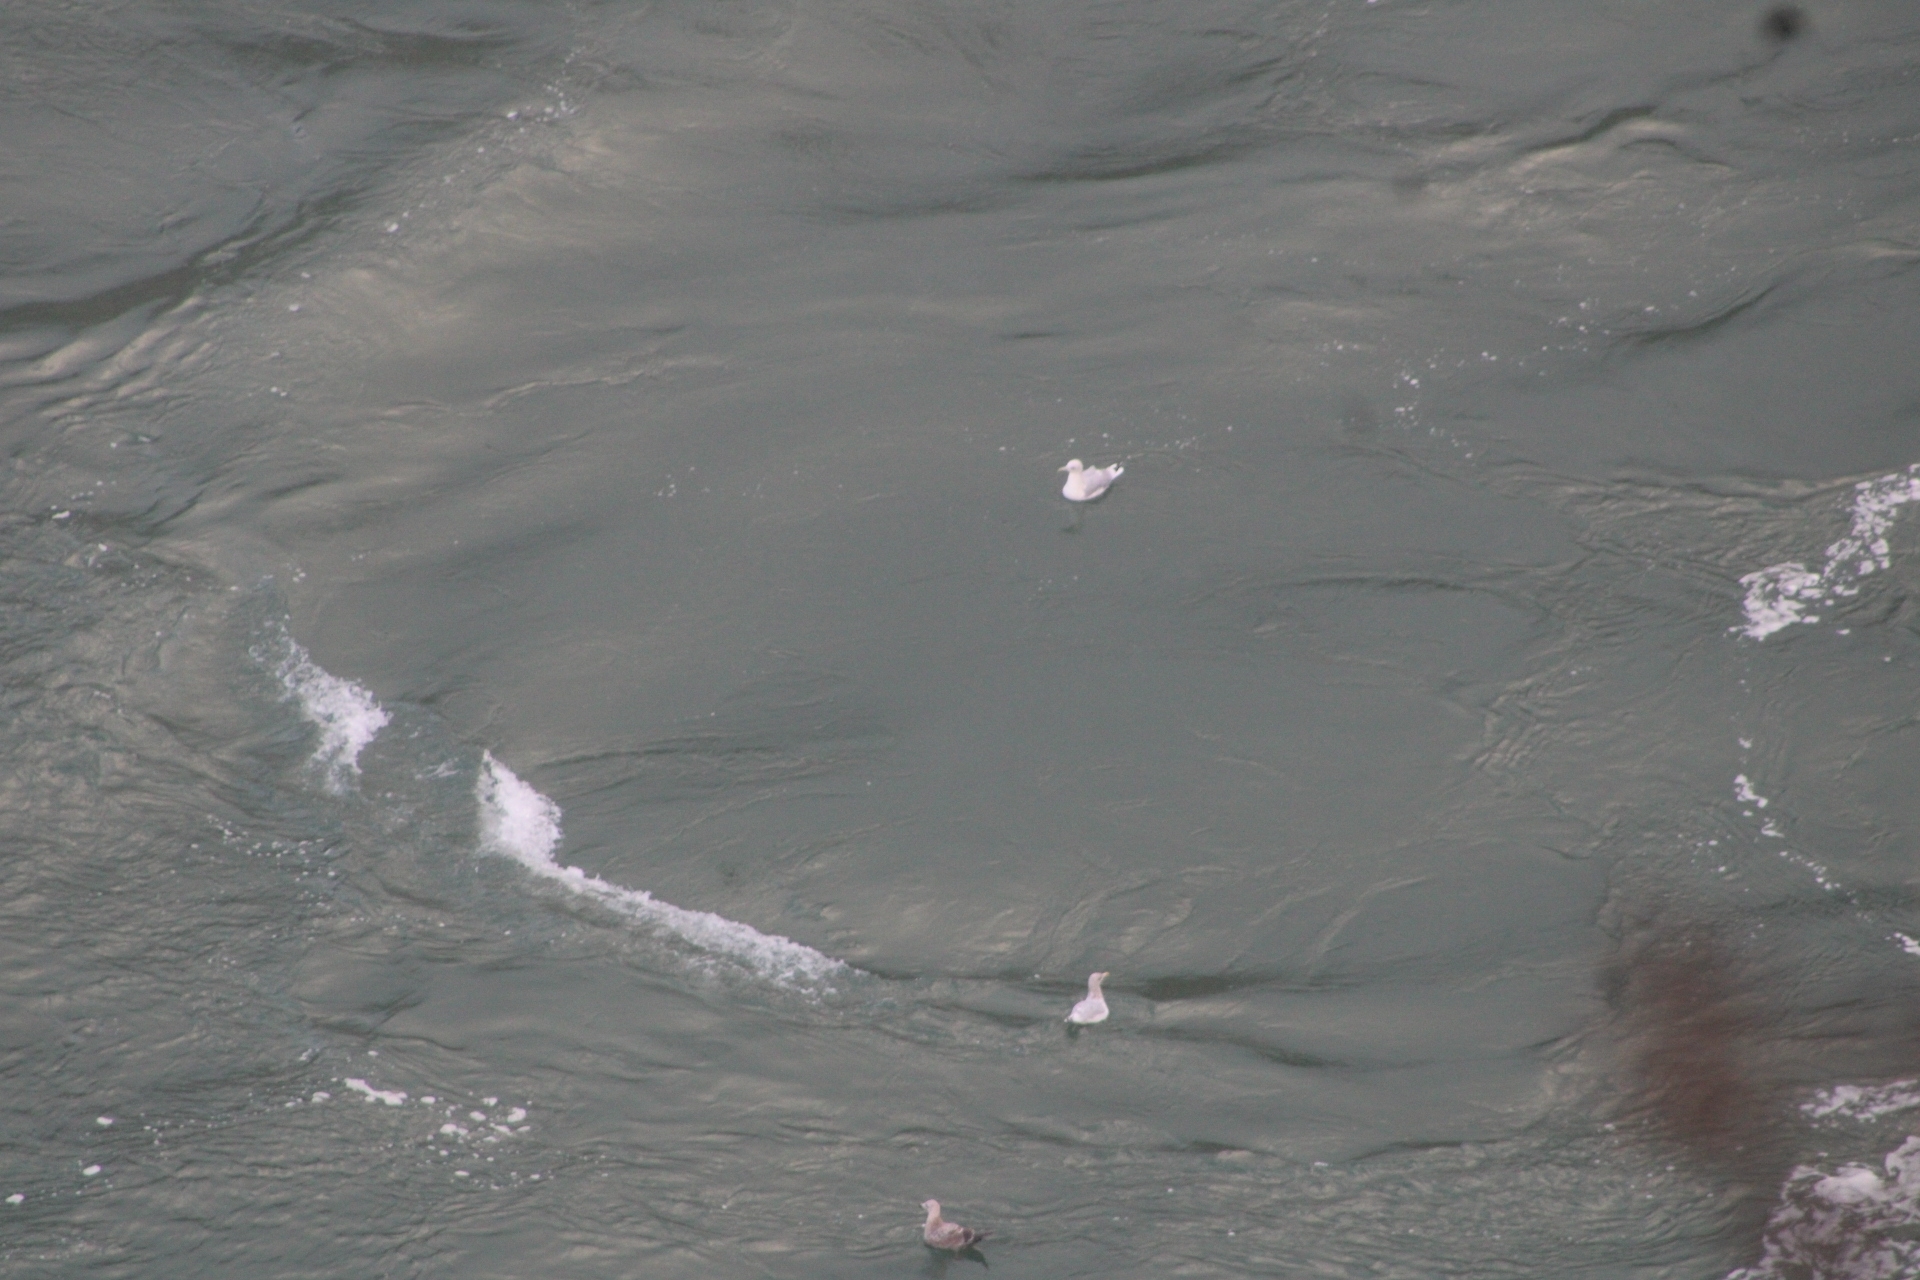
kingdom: Animalia
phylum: Chordata
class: Aves
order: Charadriiformes
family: Laridae
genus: Larus
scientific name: Larus
